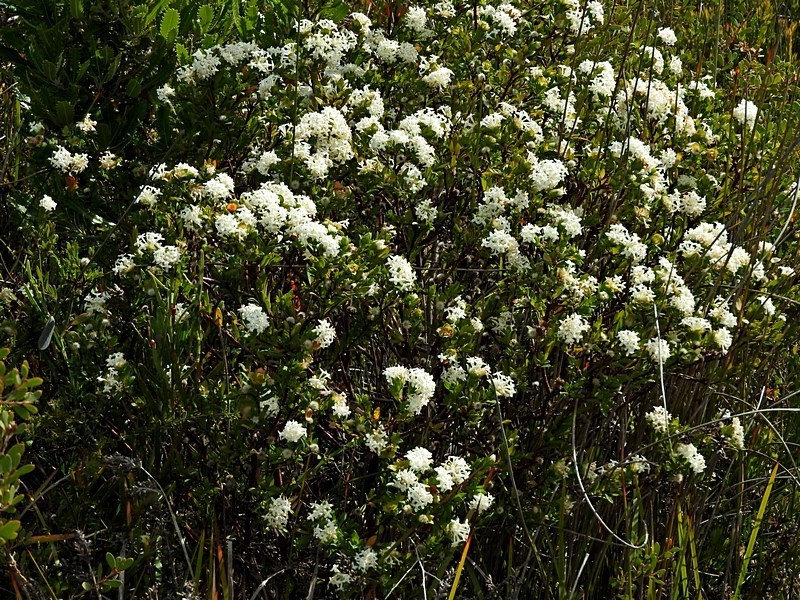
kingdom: Plantae
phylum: Tracheophyta
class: Magnoliopsida
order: Malvales
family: Thymelaeaceae
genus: Pimelea
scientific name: Pimelea linifolia
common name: Queen-of-the-bush
